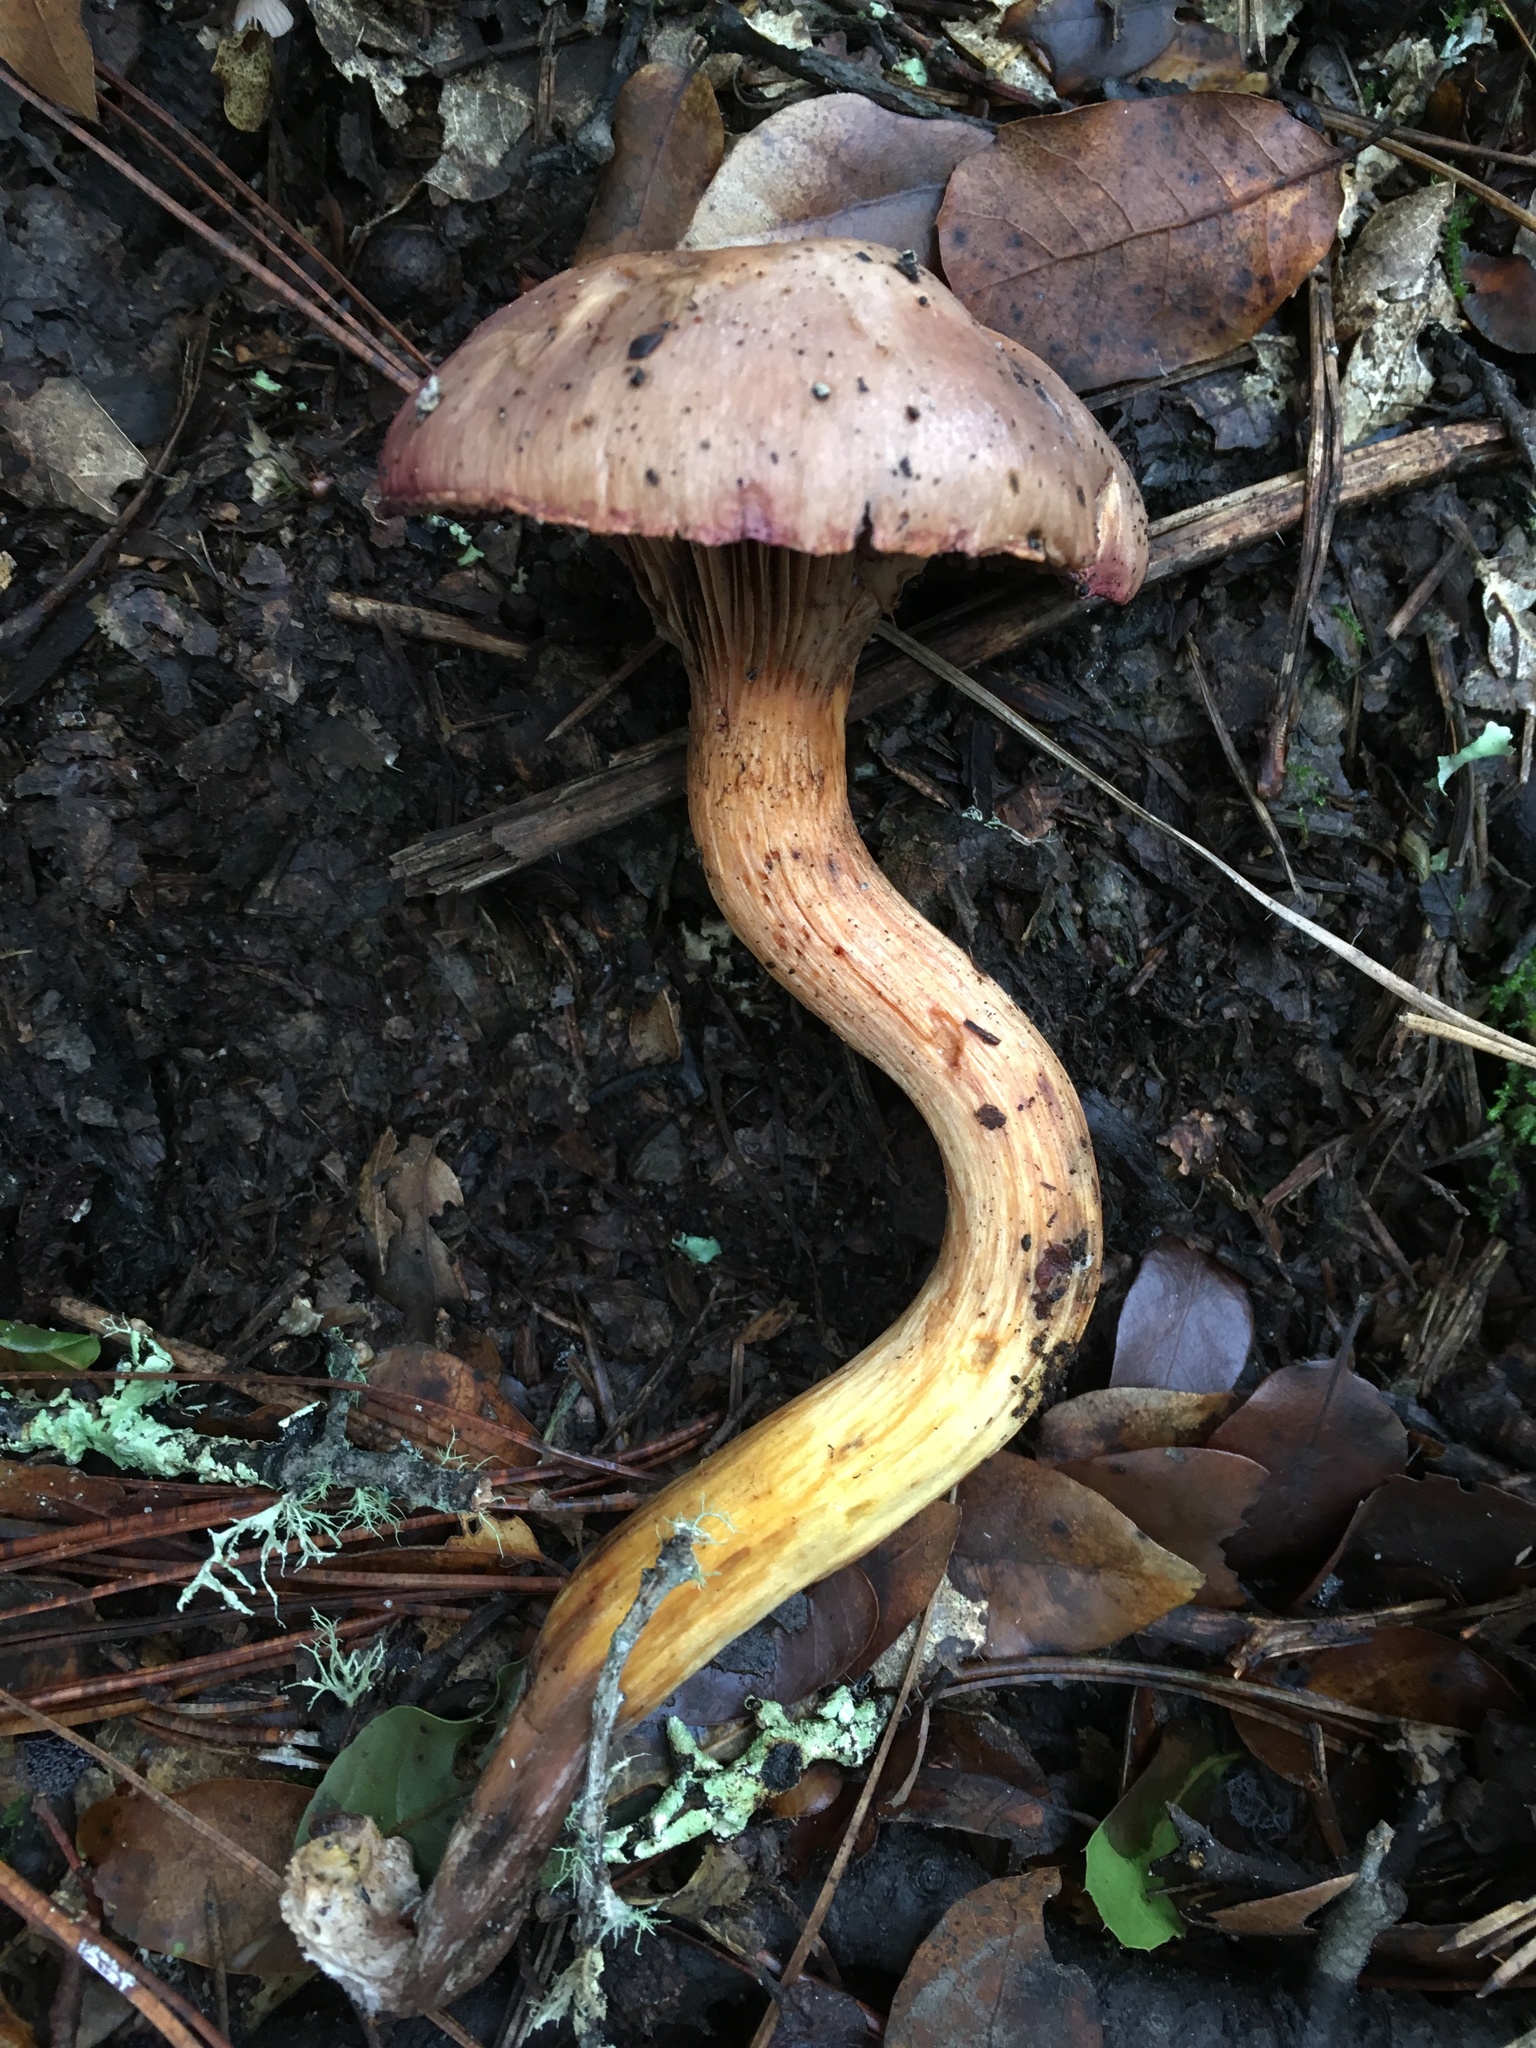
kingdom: Fungi
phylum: Basidiomycota
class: Agaricomycetes
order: Boletales
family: Gomphidiaceae
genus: Chroogomphus
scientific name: Chroogomphus ochraceus
